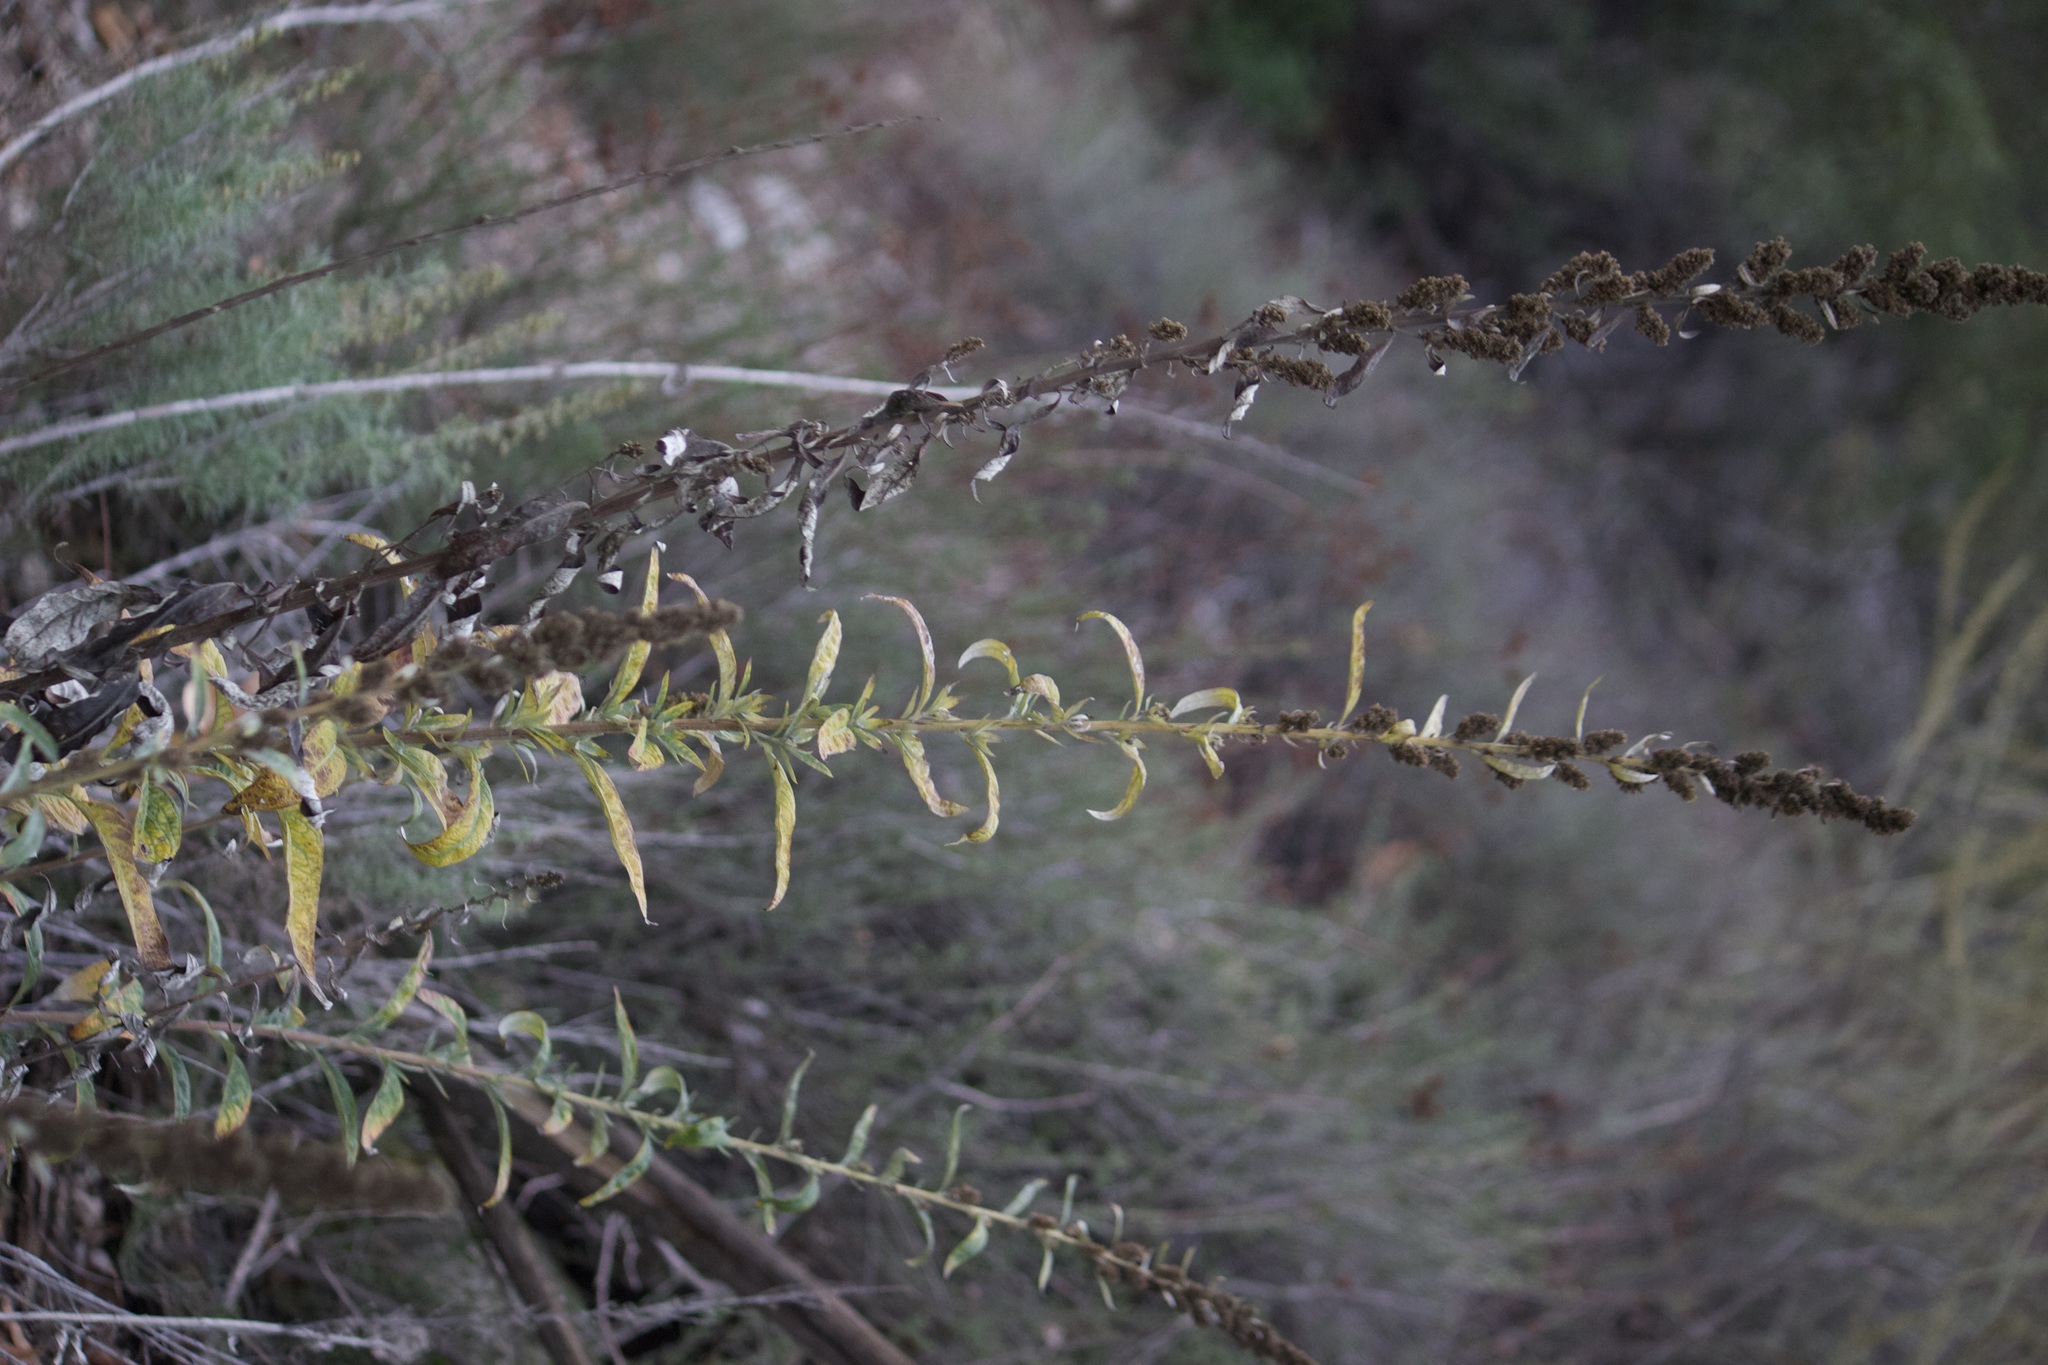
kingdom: Plantae
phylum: Tracheophyta
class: Magnoliopsida
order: Asterales
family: Asteraceae
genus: Artemisia
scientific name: Artemisia douglasiana
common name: Northwest mugwort
